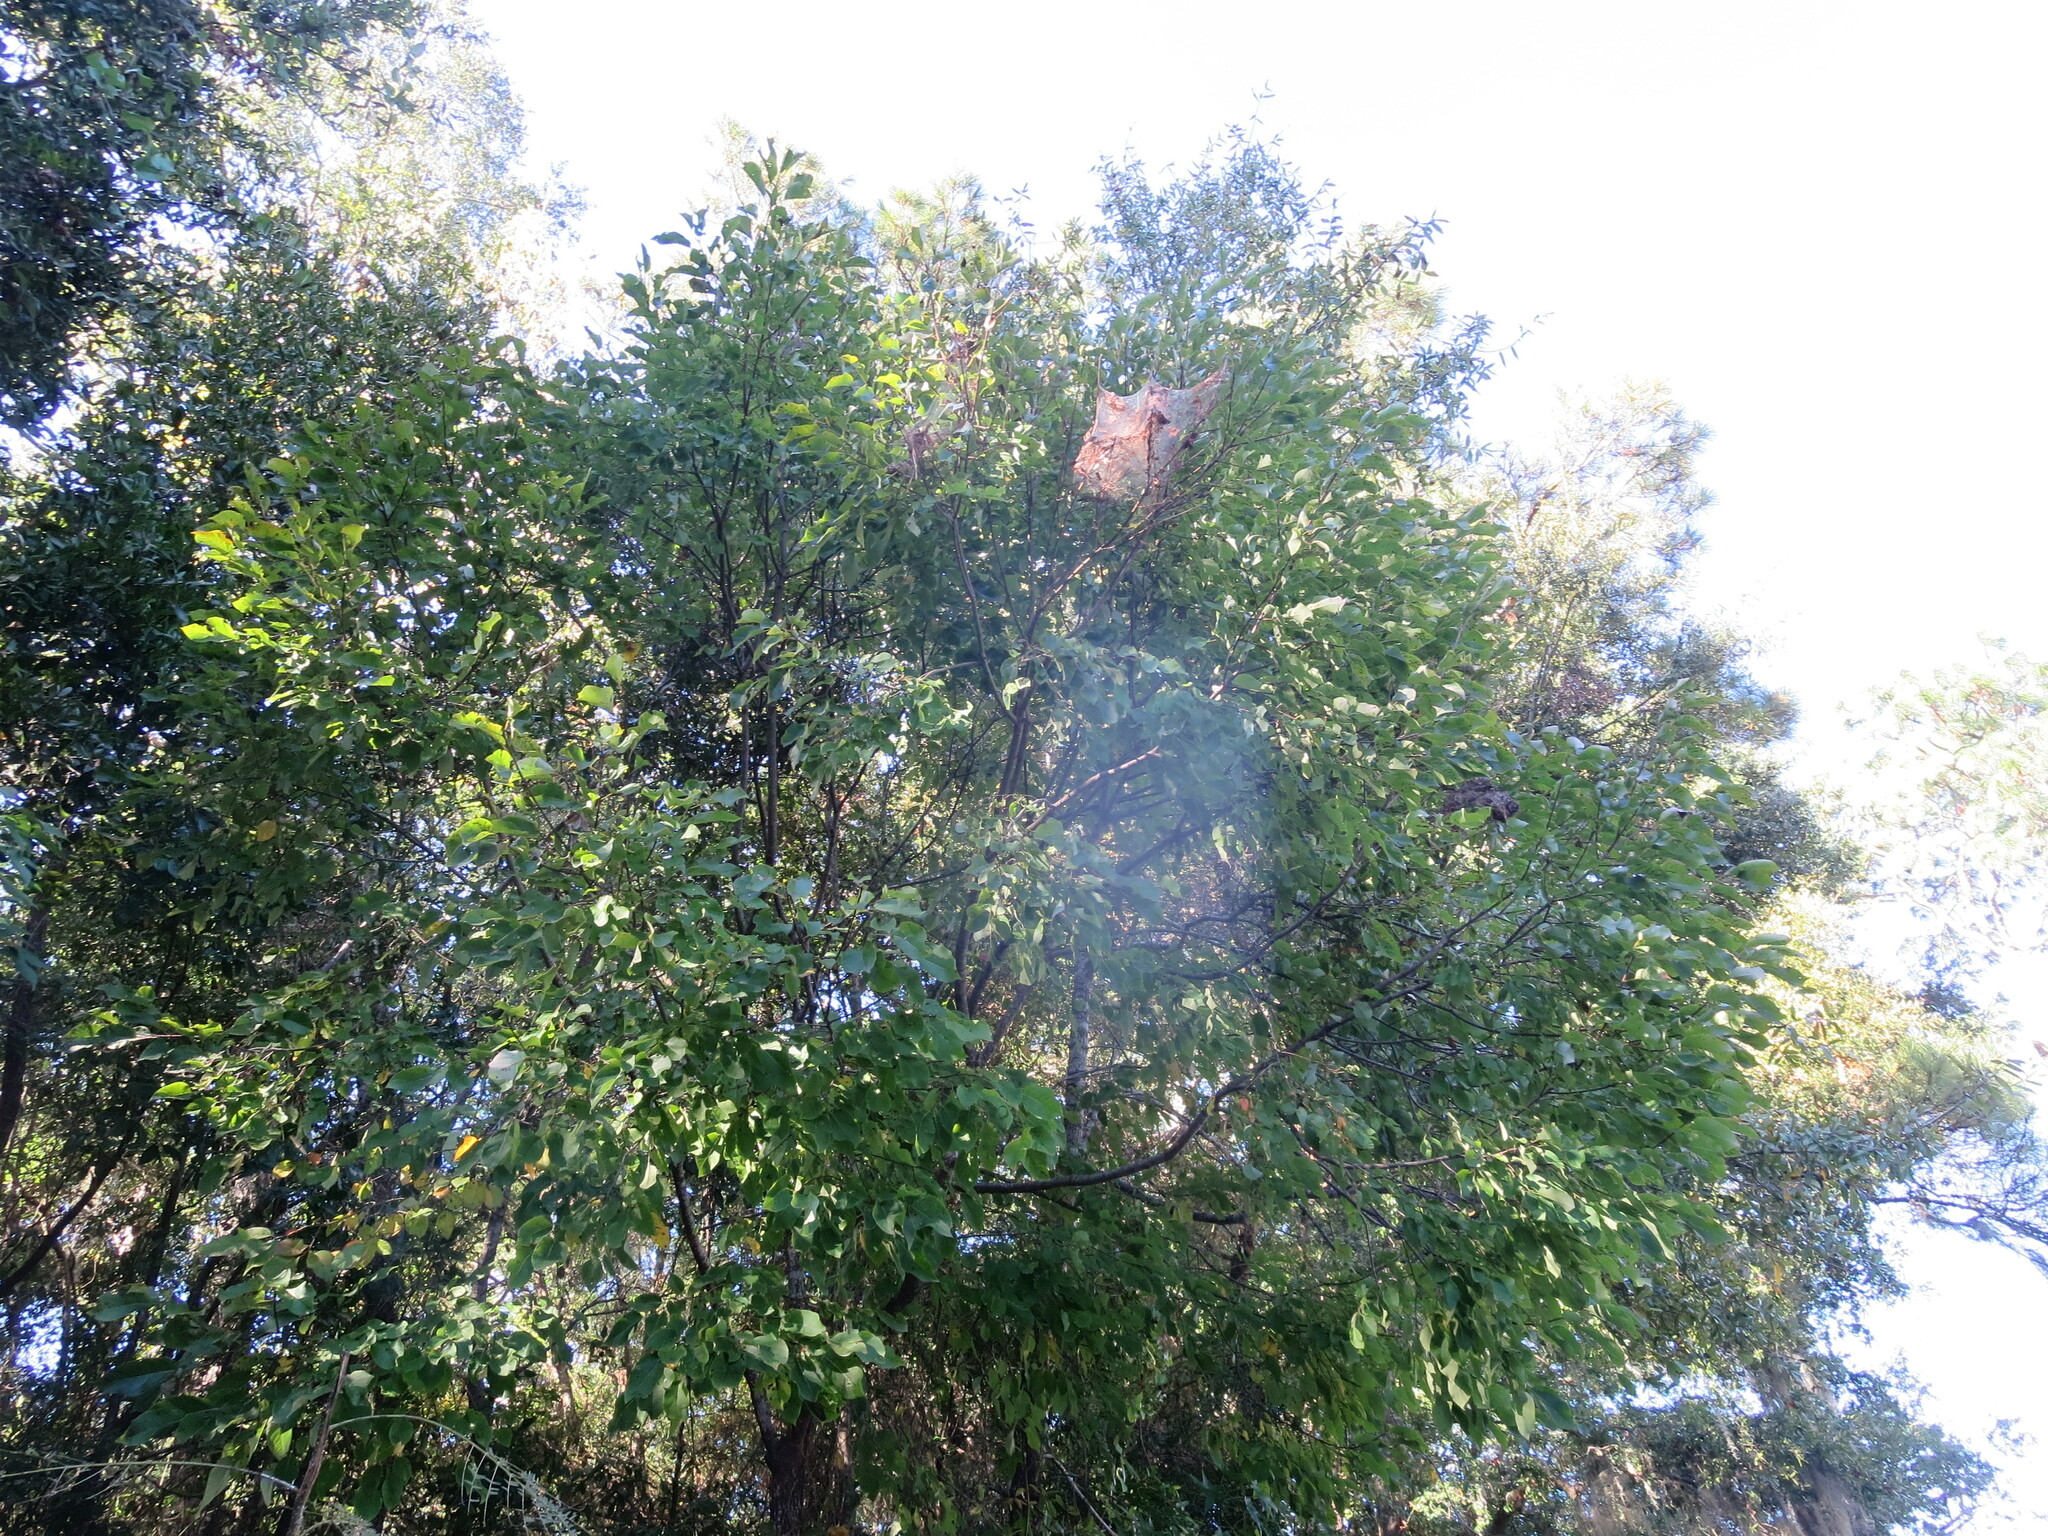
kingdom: Plantae
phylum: Tracheophyta
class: Magnoliopsida
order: Ericales
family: Ebenaceae
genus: Diospyros
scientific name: Diospyros virginiana
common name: Persimmon
